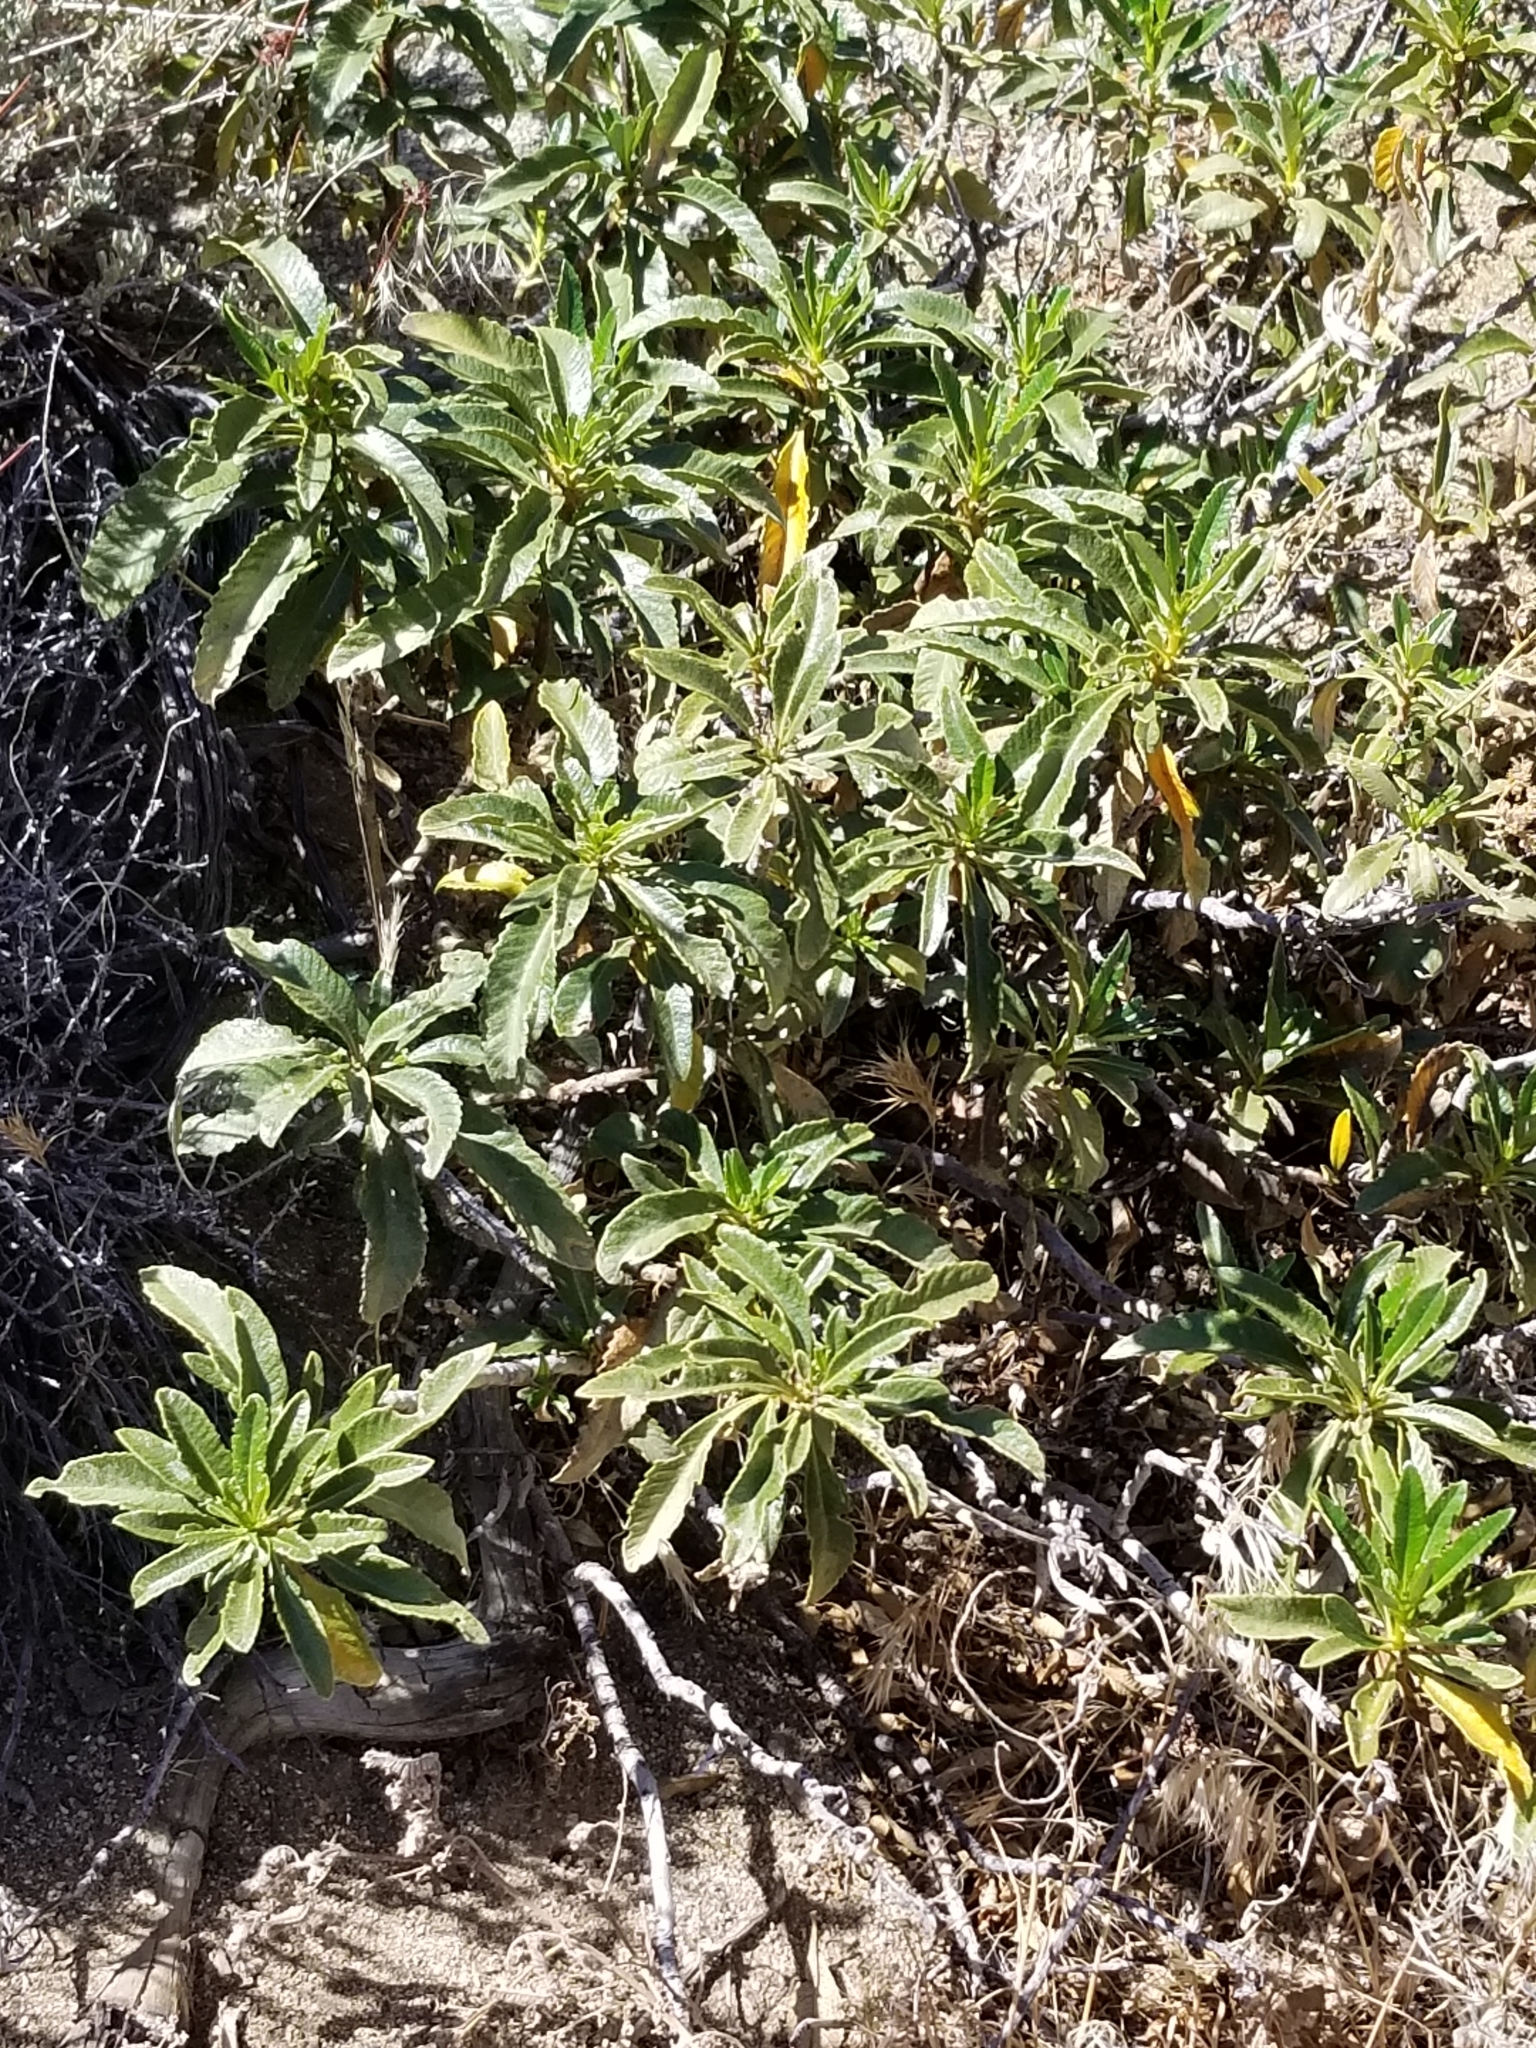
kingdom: Plantae
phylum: Tracheophyta
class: Magnoliopsida
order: Boraginales
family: Namaceae
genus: Eriodictyon
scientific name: Eriodictyon trichocalyx
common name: Hairy yerba-santa
